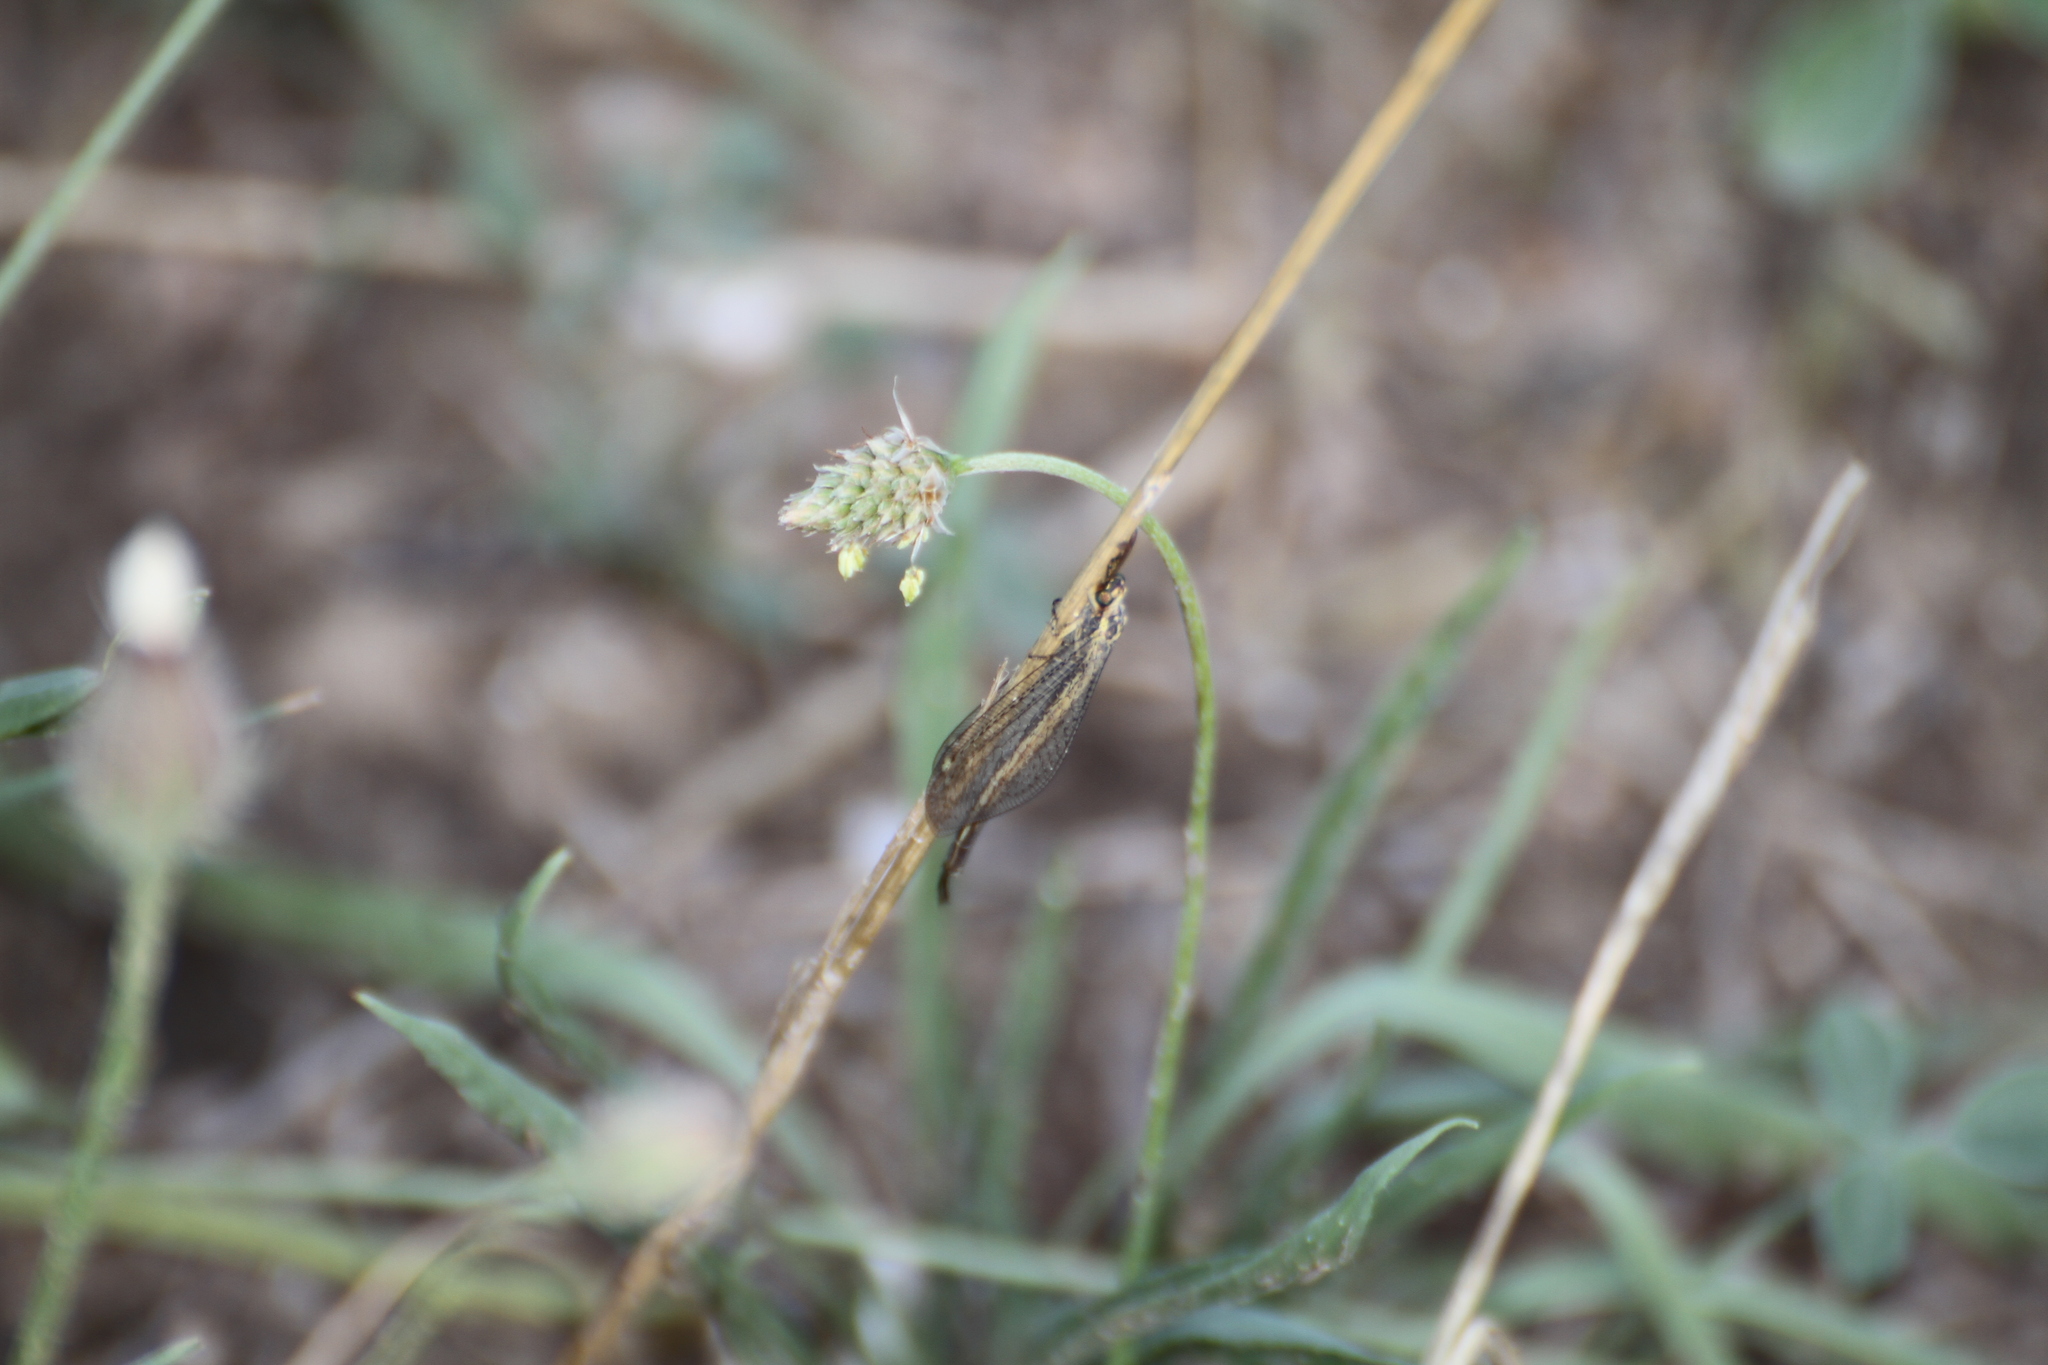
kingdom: Animalia
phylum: Arthropoda
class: Insecta
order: Neuroptera
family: Myrmeleontidae
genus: Macronemurus
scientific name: Macronemurus appendiculatus
